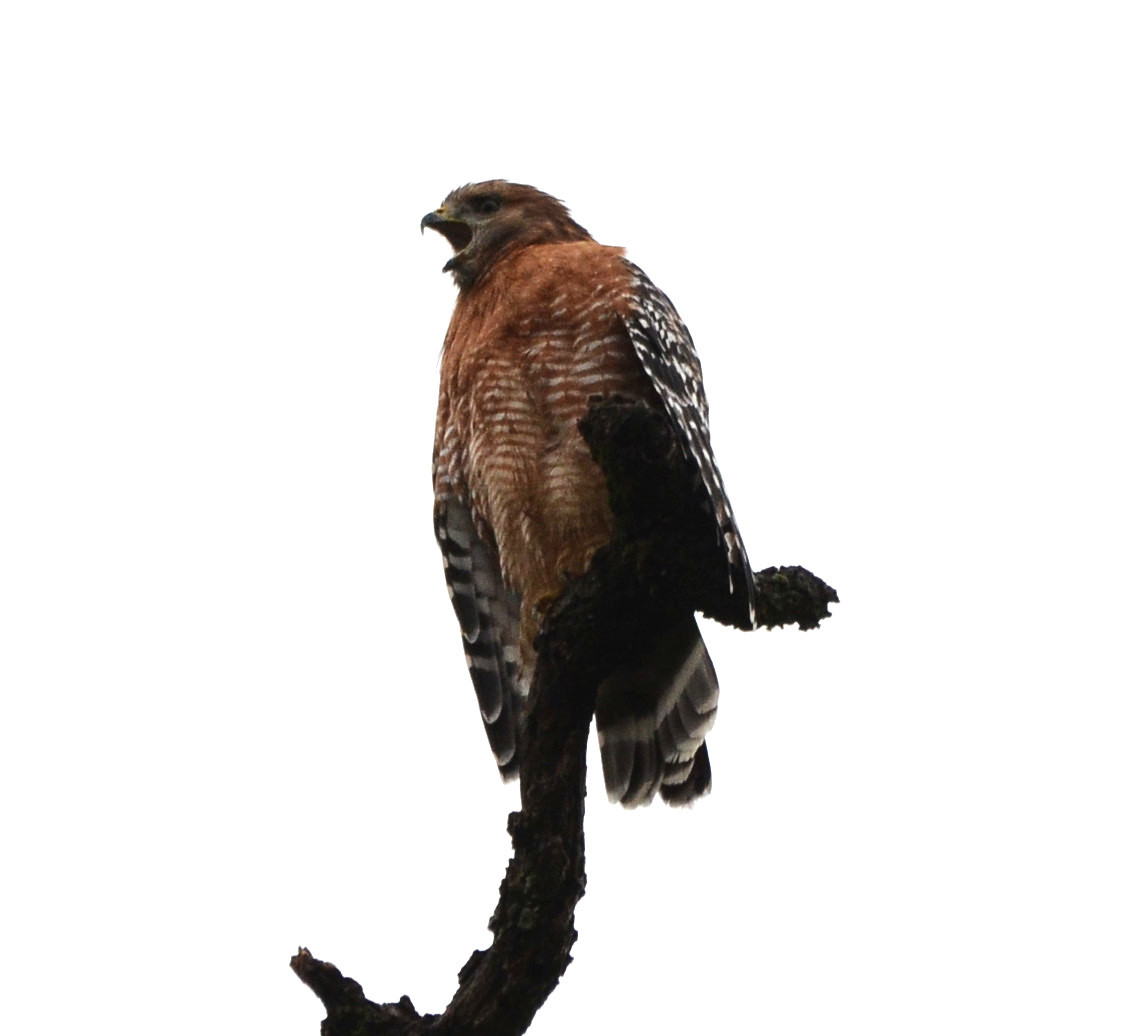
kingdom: Animalia
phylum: Chordata
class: Aves
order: Accipitriformes
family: Accipitridae
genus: Buteo
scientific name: Buteo lineatus
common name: Red-shouldered hawk
